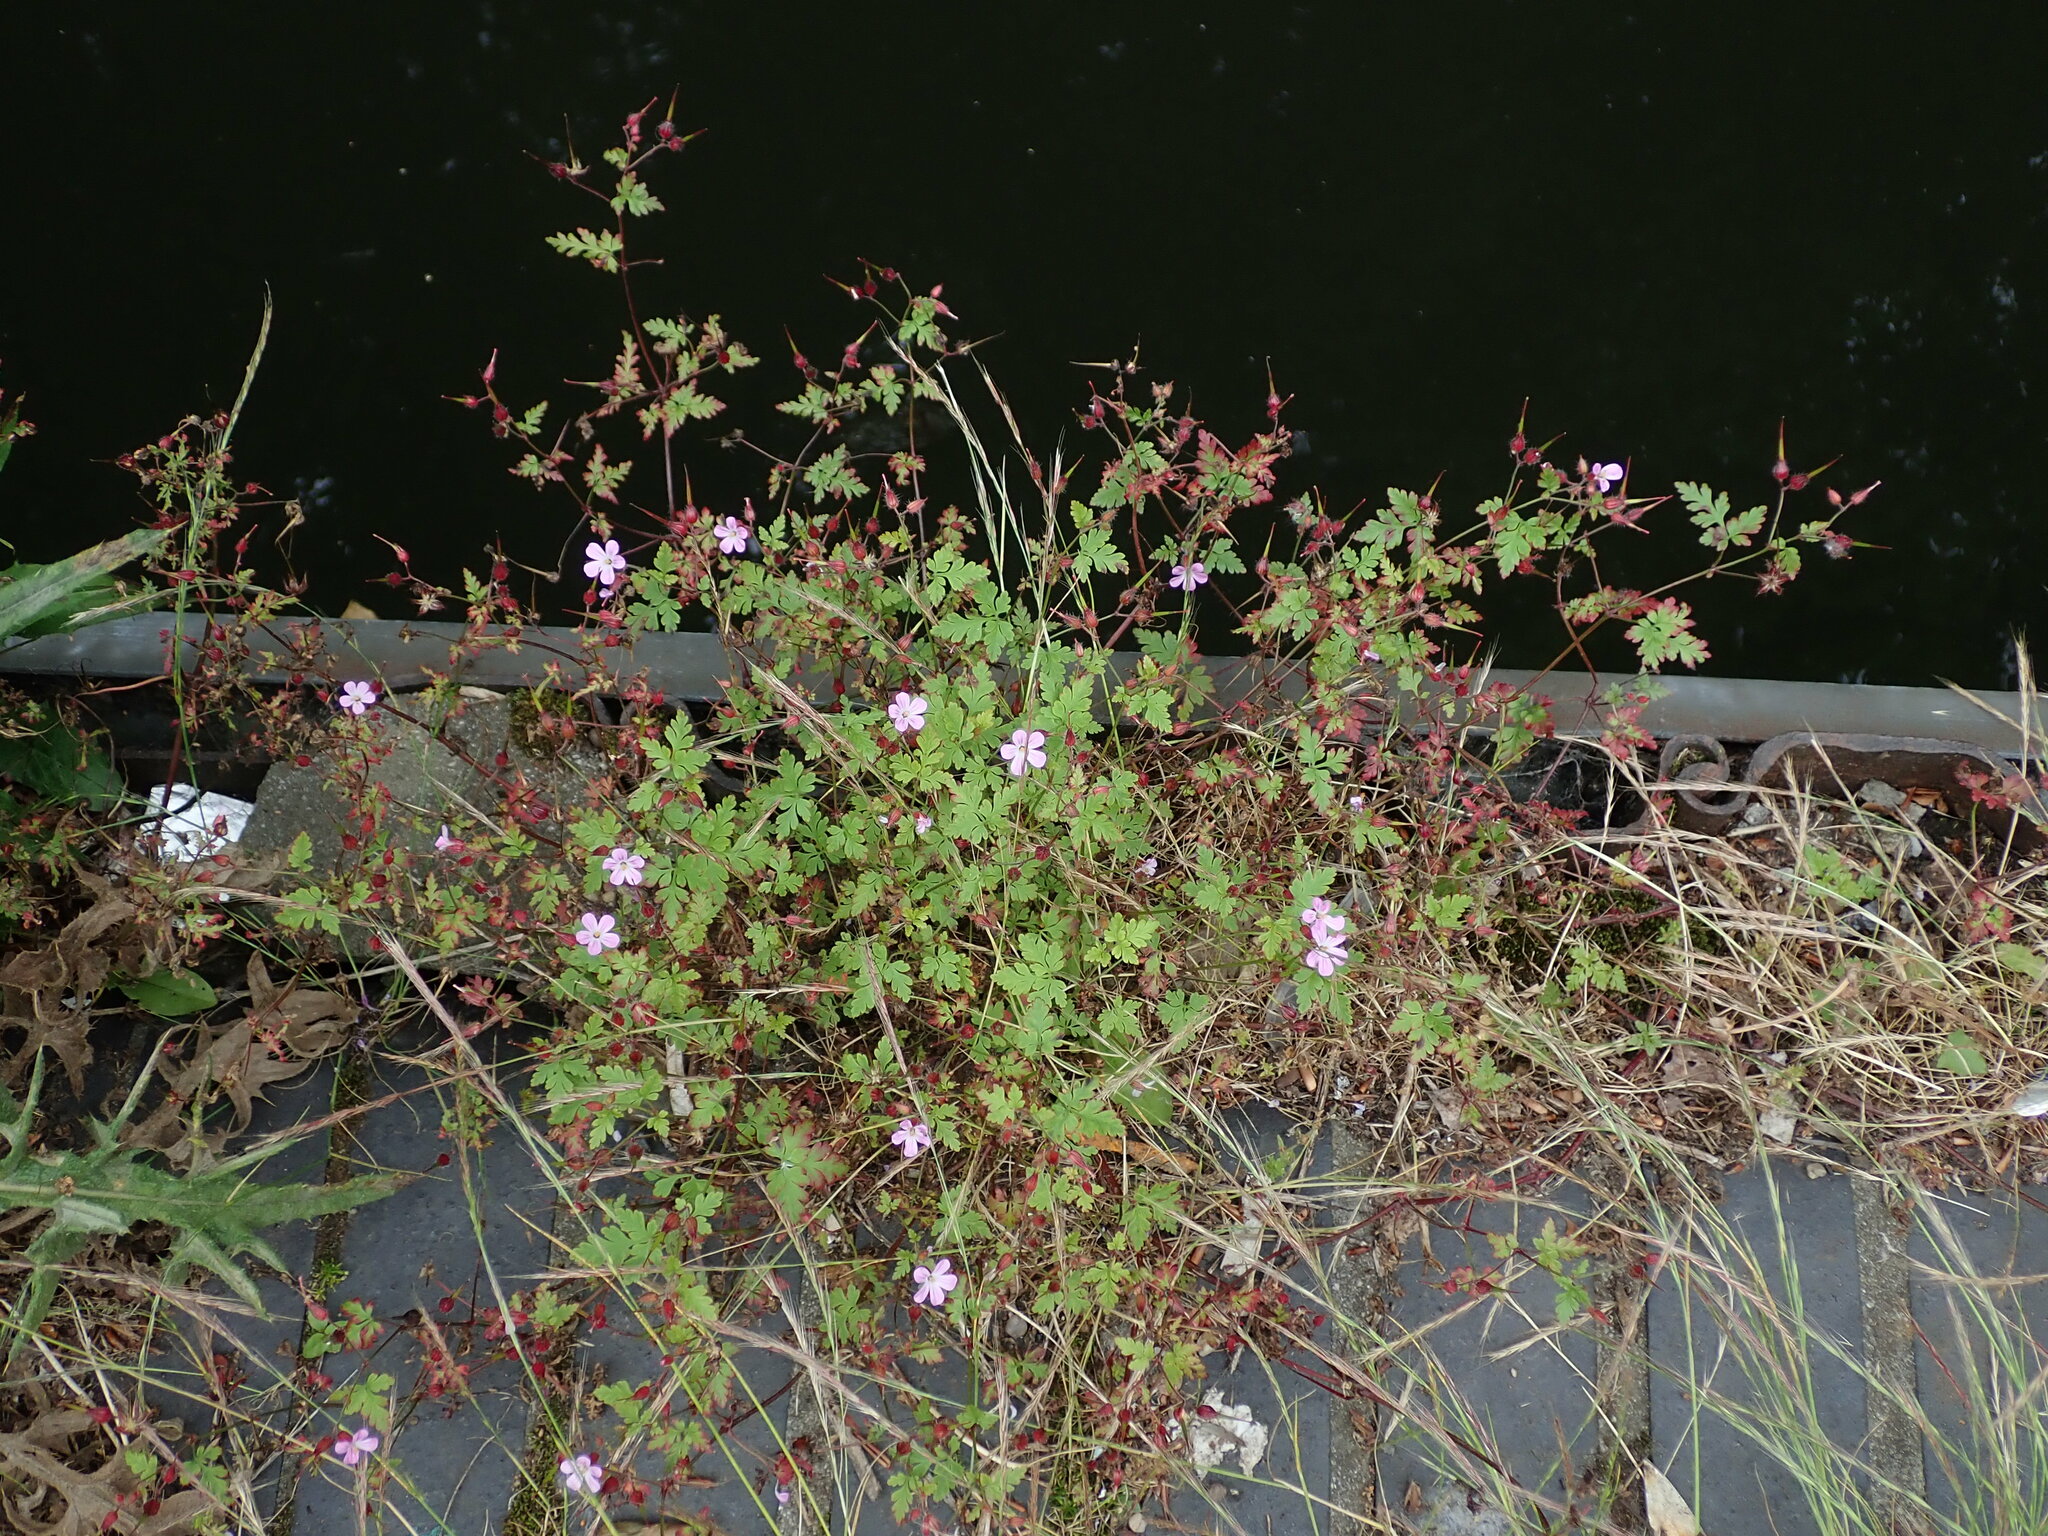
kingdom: Plantae
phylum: Tracheophyta
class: Magnoliopsida
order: Geraniales
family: Geraniaceae
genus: Geranium
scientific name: Geranium robertianum
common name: Herb-robert
